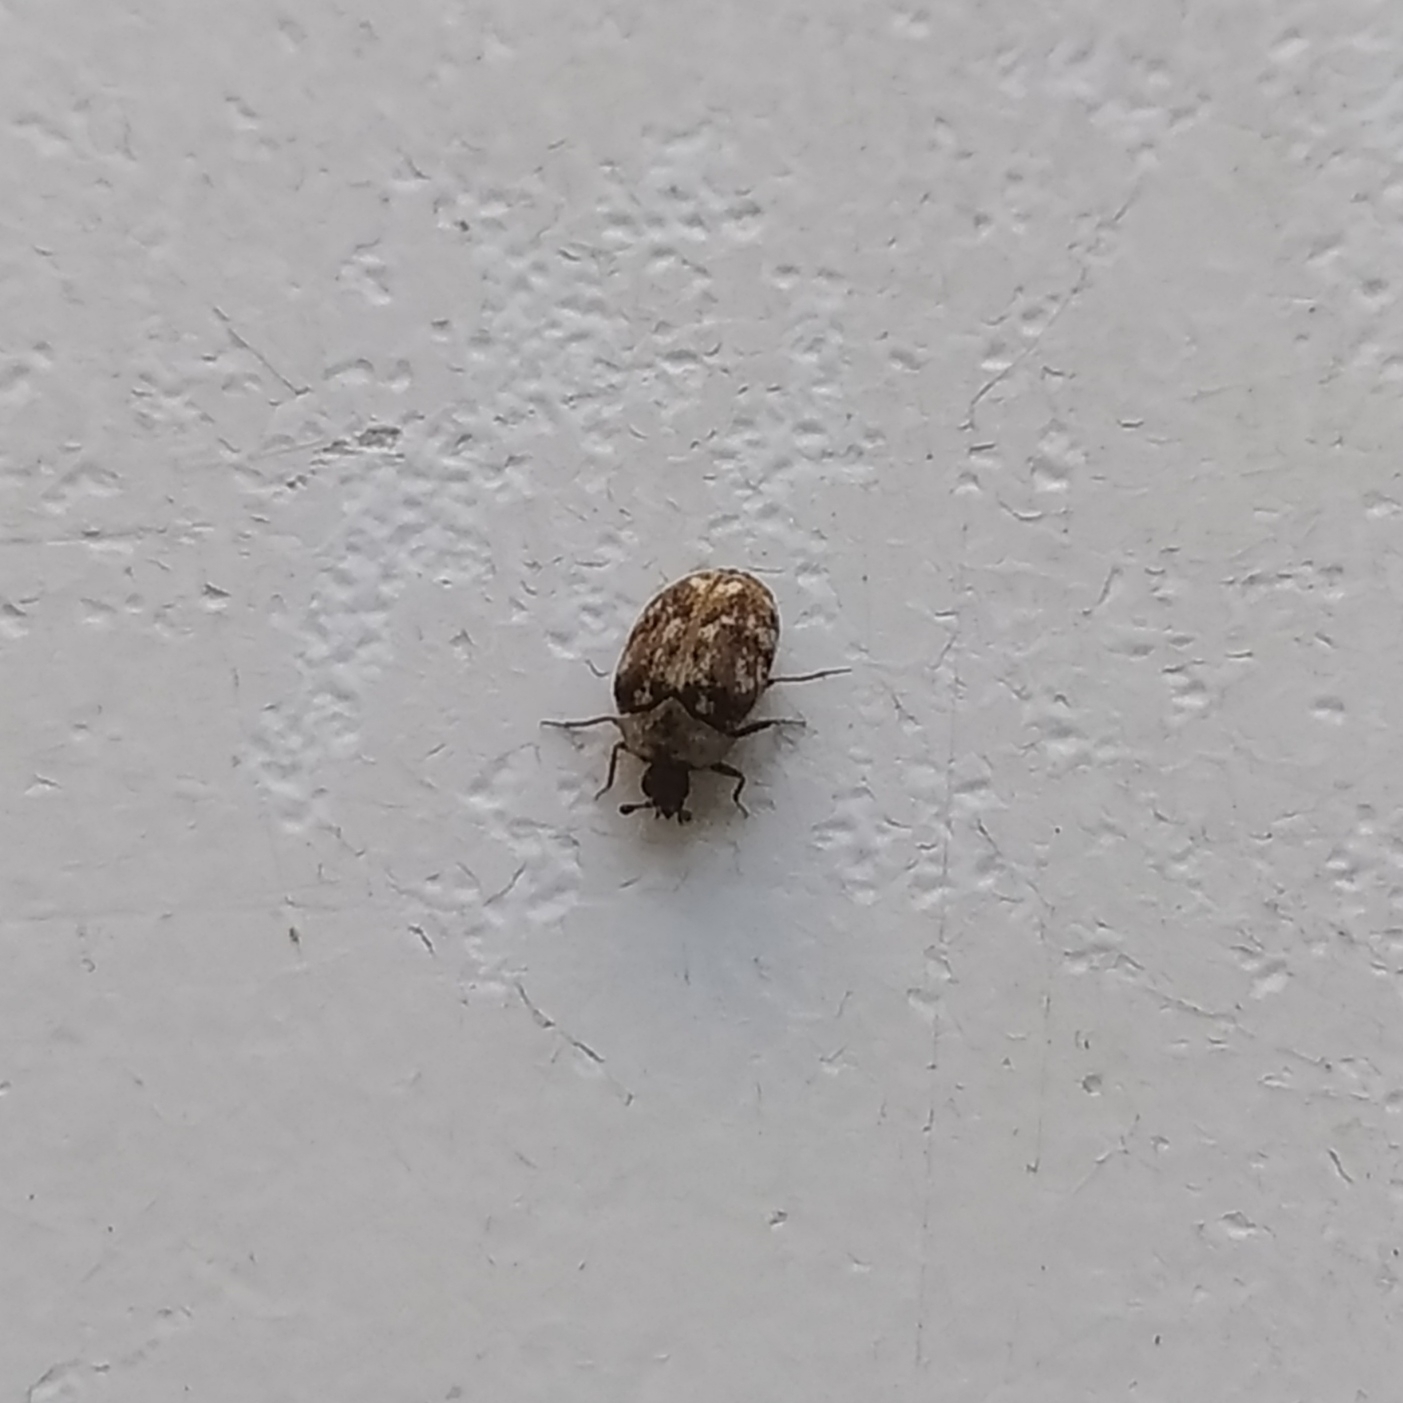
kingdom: Animalia
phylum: Arthropoda
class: Insecta
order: Coleoptera
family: Dermestidae
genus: Anthrenus
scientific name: Anthrenus picturatus
